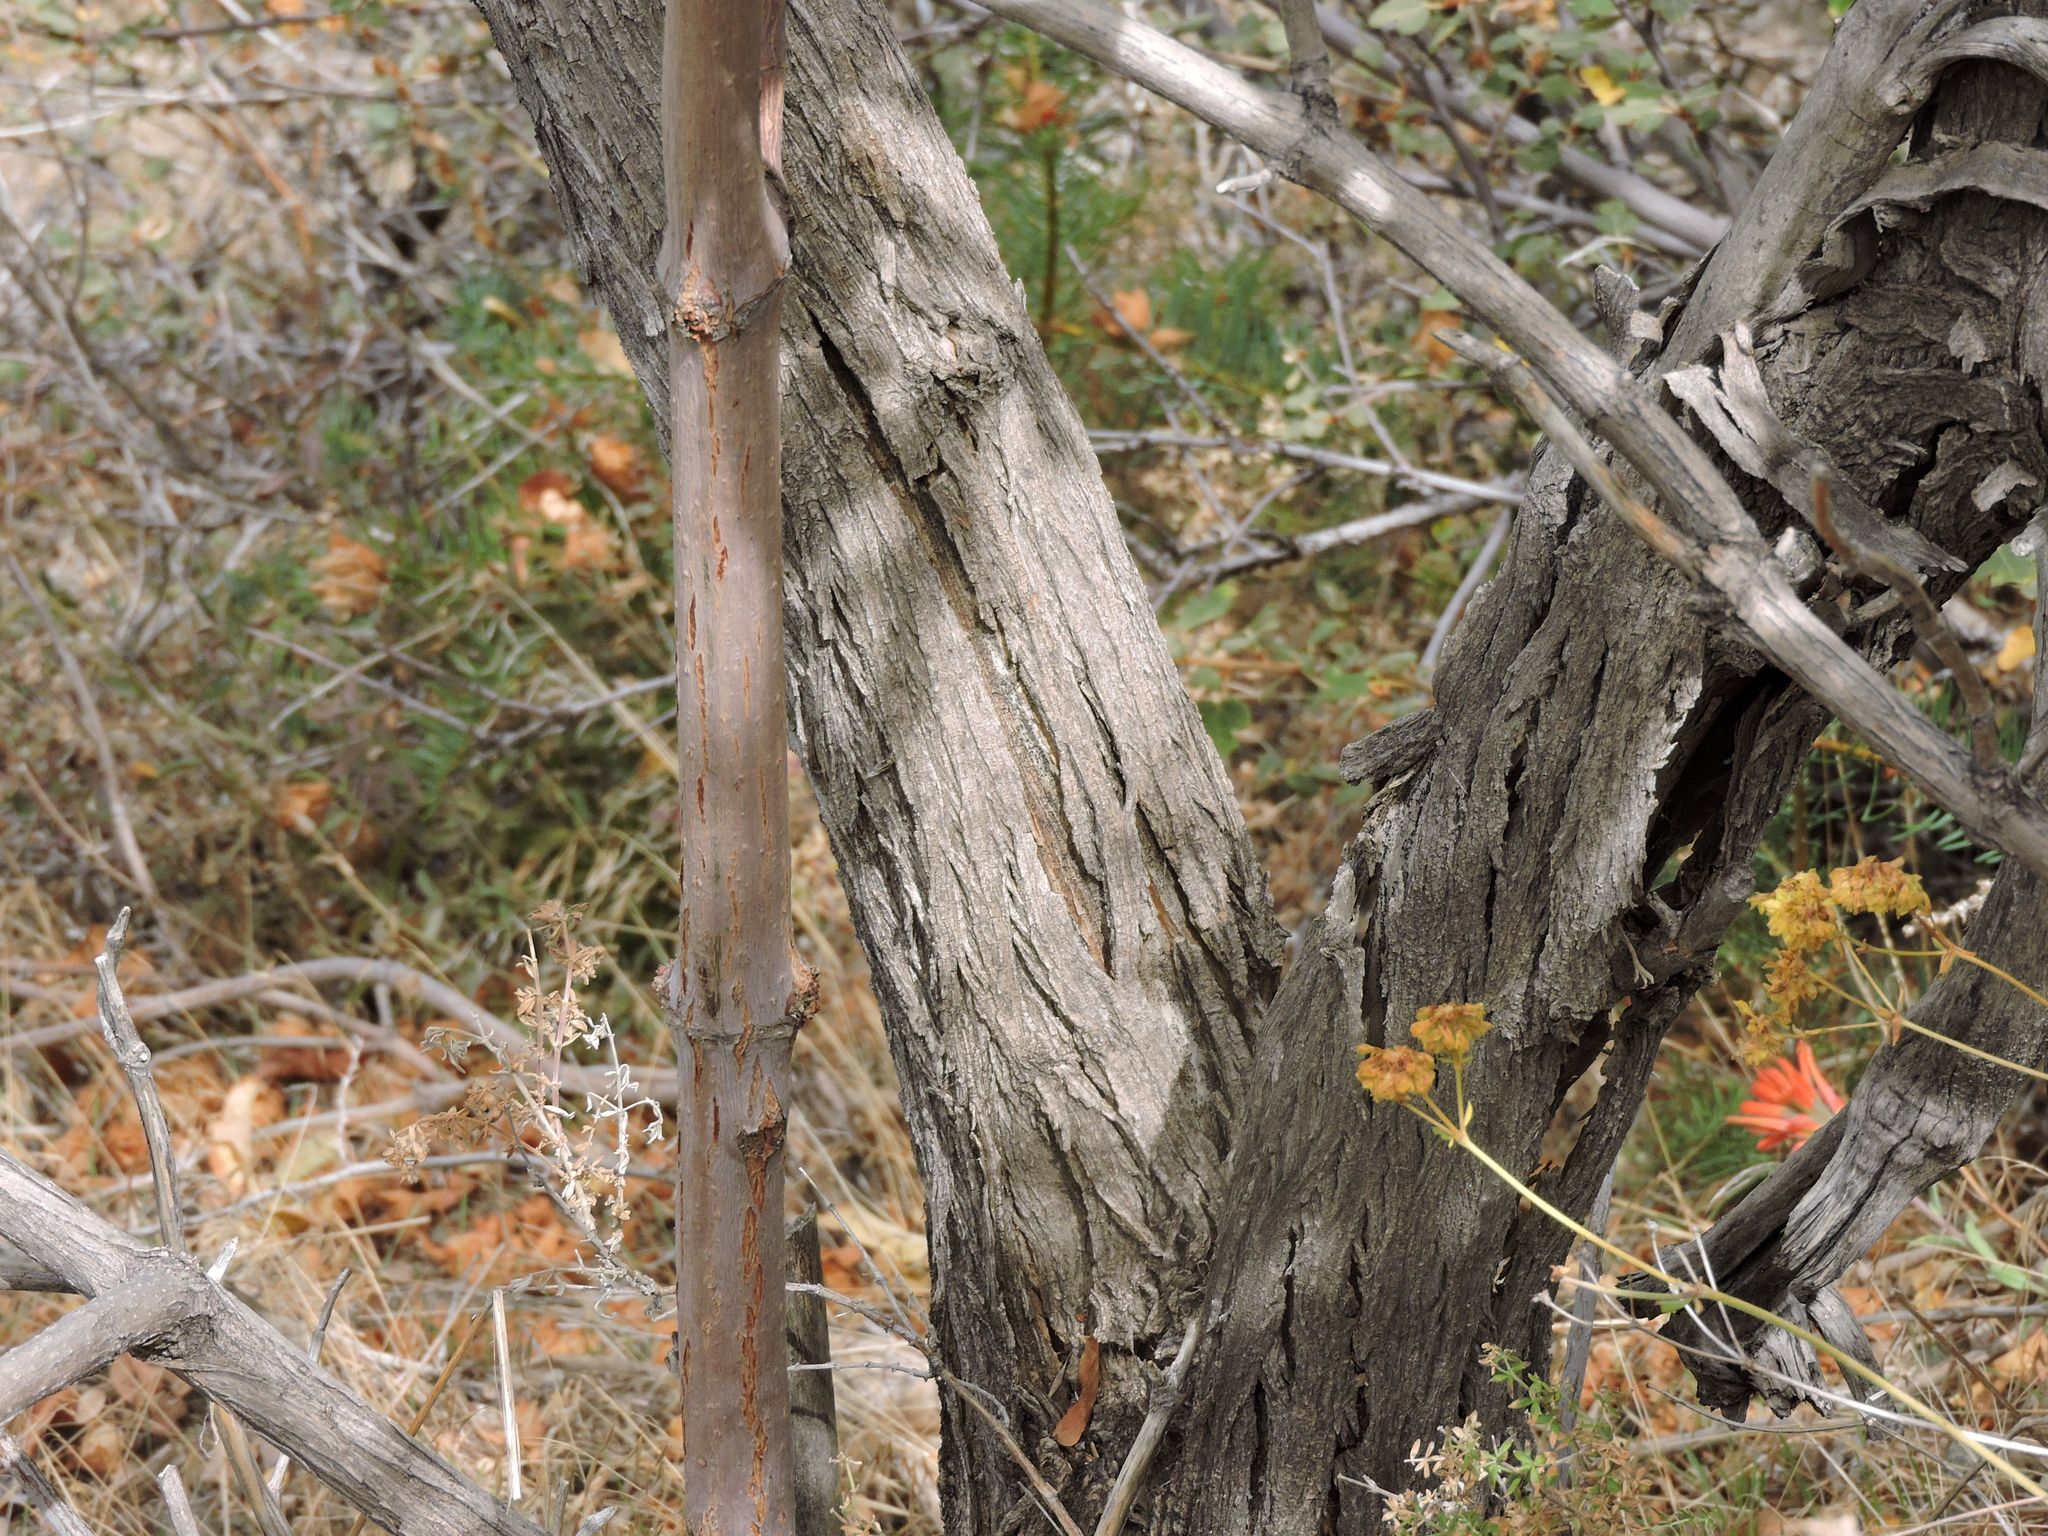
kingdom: Plantae
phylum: Tracheophyta
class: Magnoliopsida
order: Dipsacales
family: Viburnaceae
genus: Sambucus
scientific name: Sambucus cerulea
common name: Blue elder
